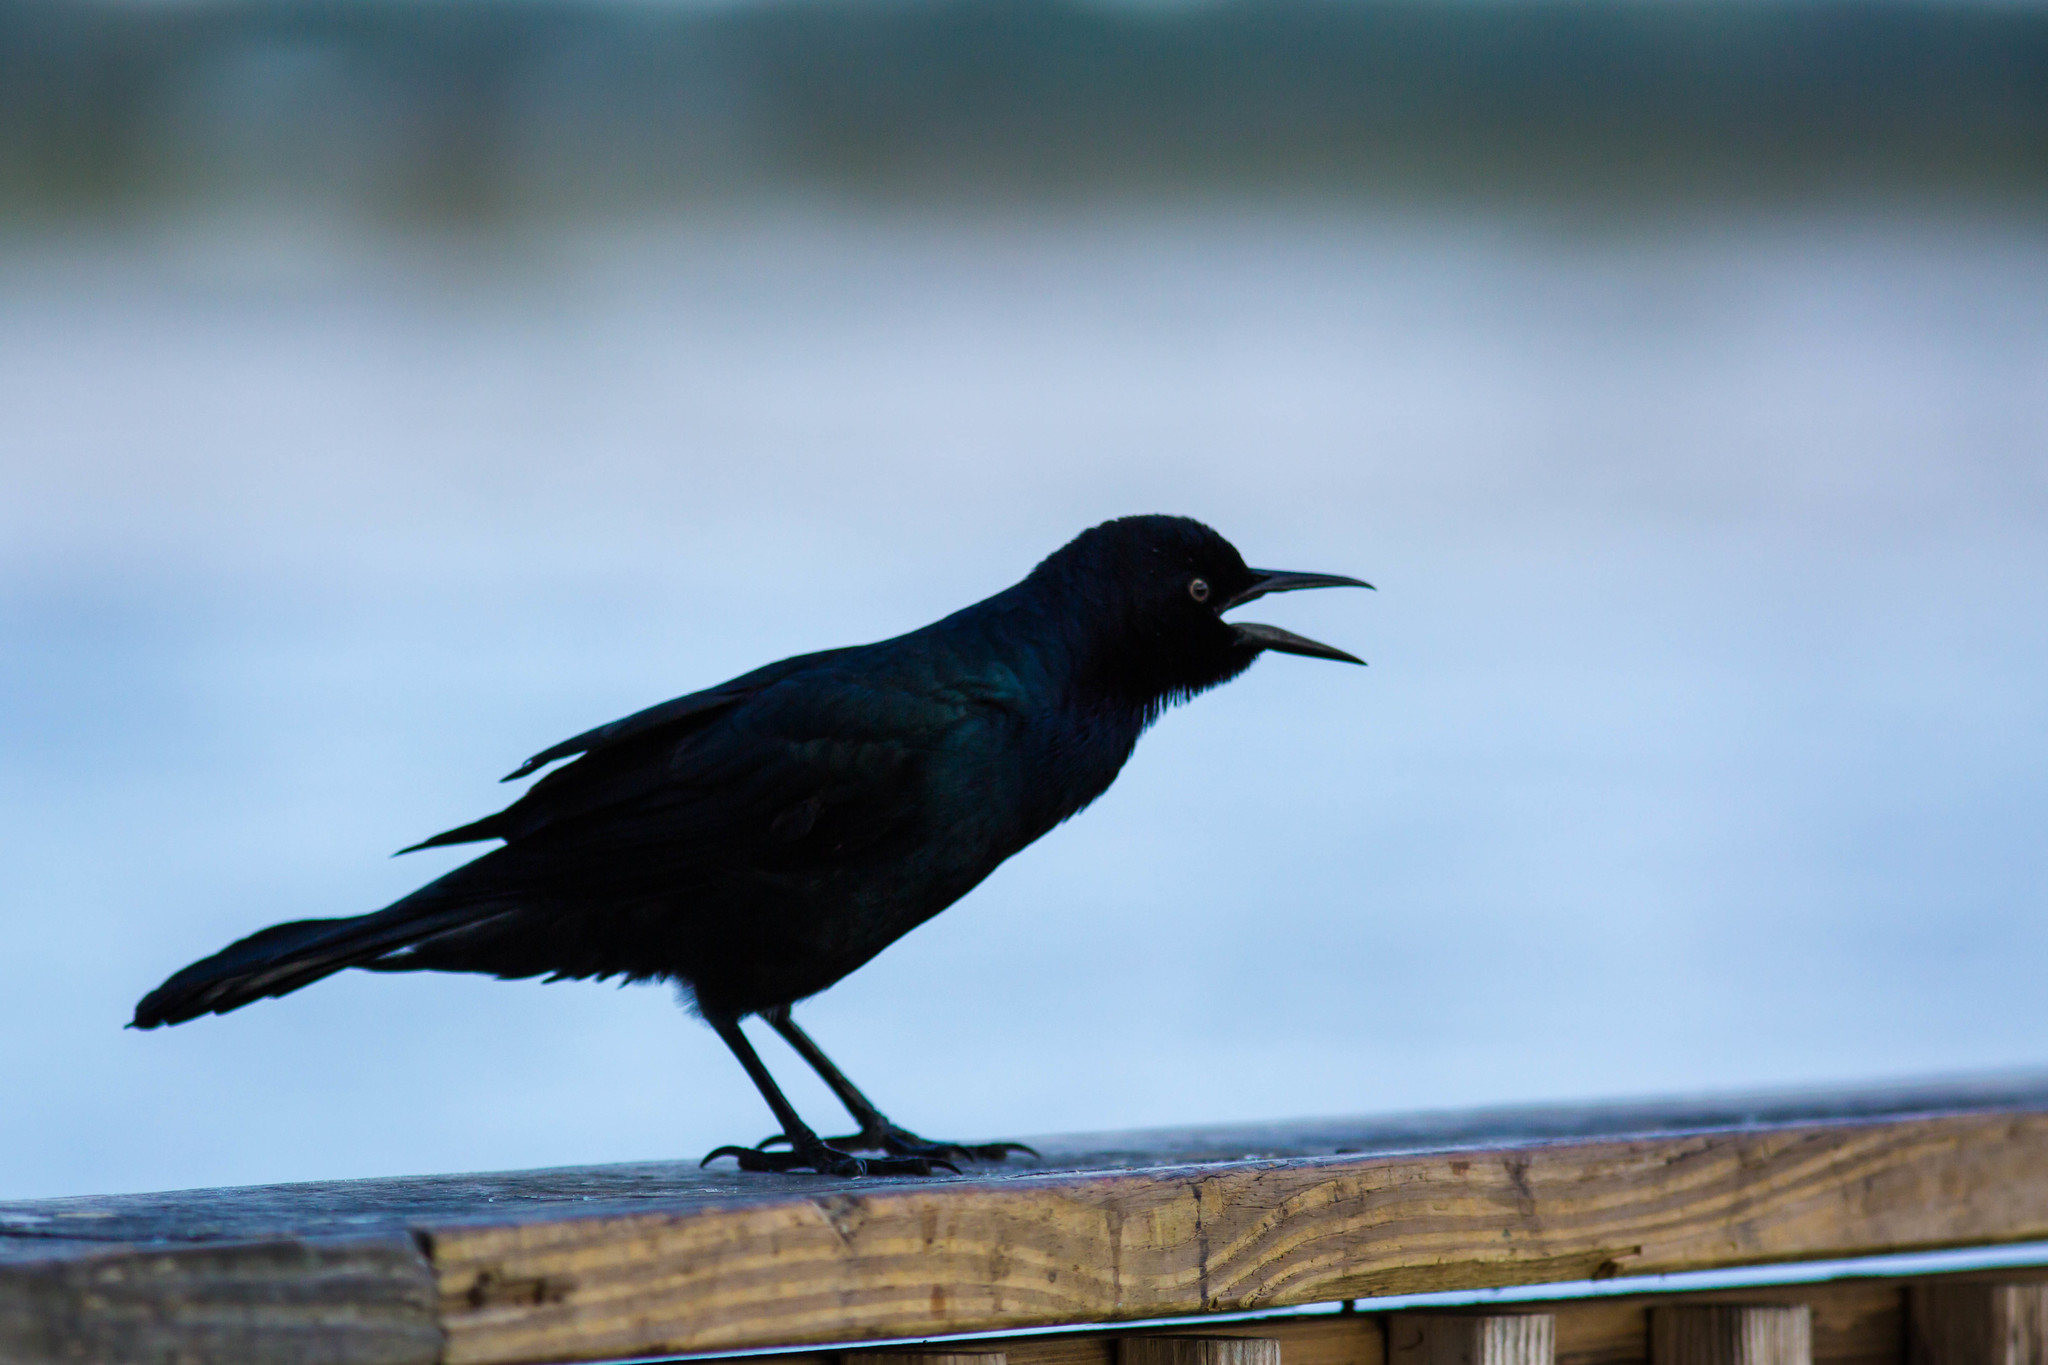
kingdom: Animalia
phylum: Chordata
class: Aves
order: Passeriformes
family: Icteridae
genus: Quiscalus
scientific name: Quiscalus major
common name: Boat-tailed grackle
